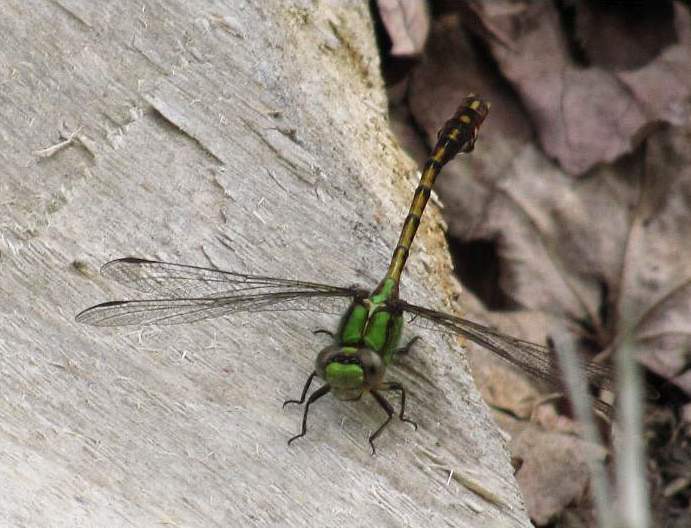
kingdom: Animalia
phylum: Arthropoda
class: Insecta
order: Odonata
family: Gomphidae
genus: Ophiogomphus
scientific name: Ophiogomphus rupinsulensis
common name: Rusty snaketail
